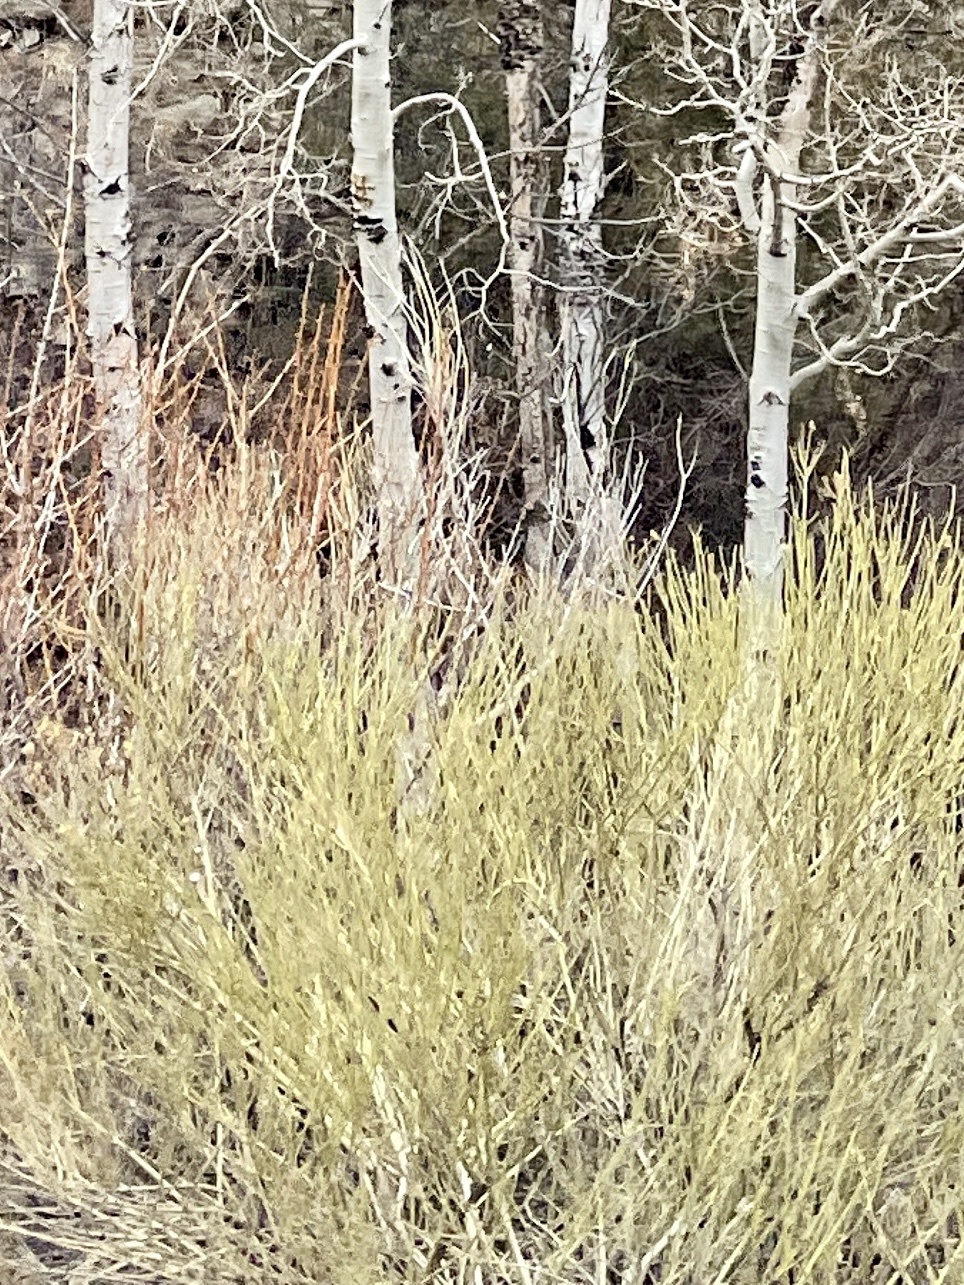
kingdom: Plantae
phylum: Tracheophyta
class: Magnoliopsida
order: Asterales
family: Asteraceae
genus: Ericameria
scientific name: Ericameria nauseosa
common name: Rubber rabbitbrush
